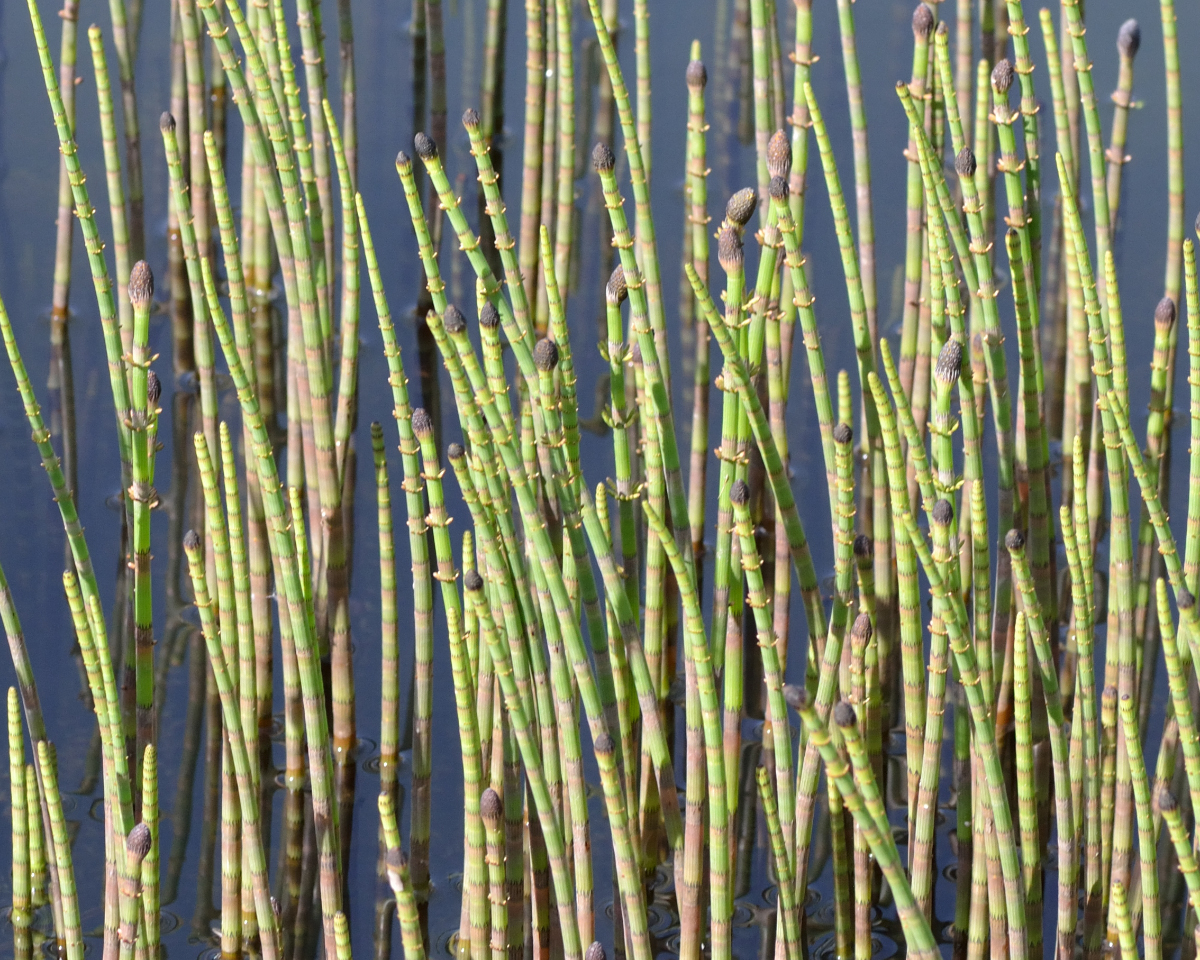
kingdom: Plantae
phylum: Tracheophyta
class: Polypodiopsida
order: Equisetales
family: Equisetaceae
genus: Equisetum
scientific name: Equisetum fluviatile
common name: Water horsetail
